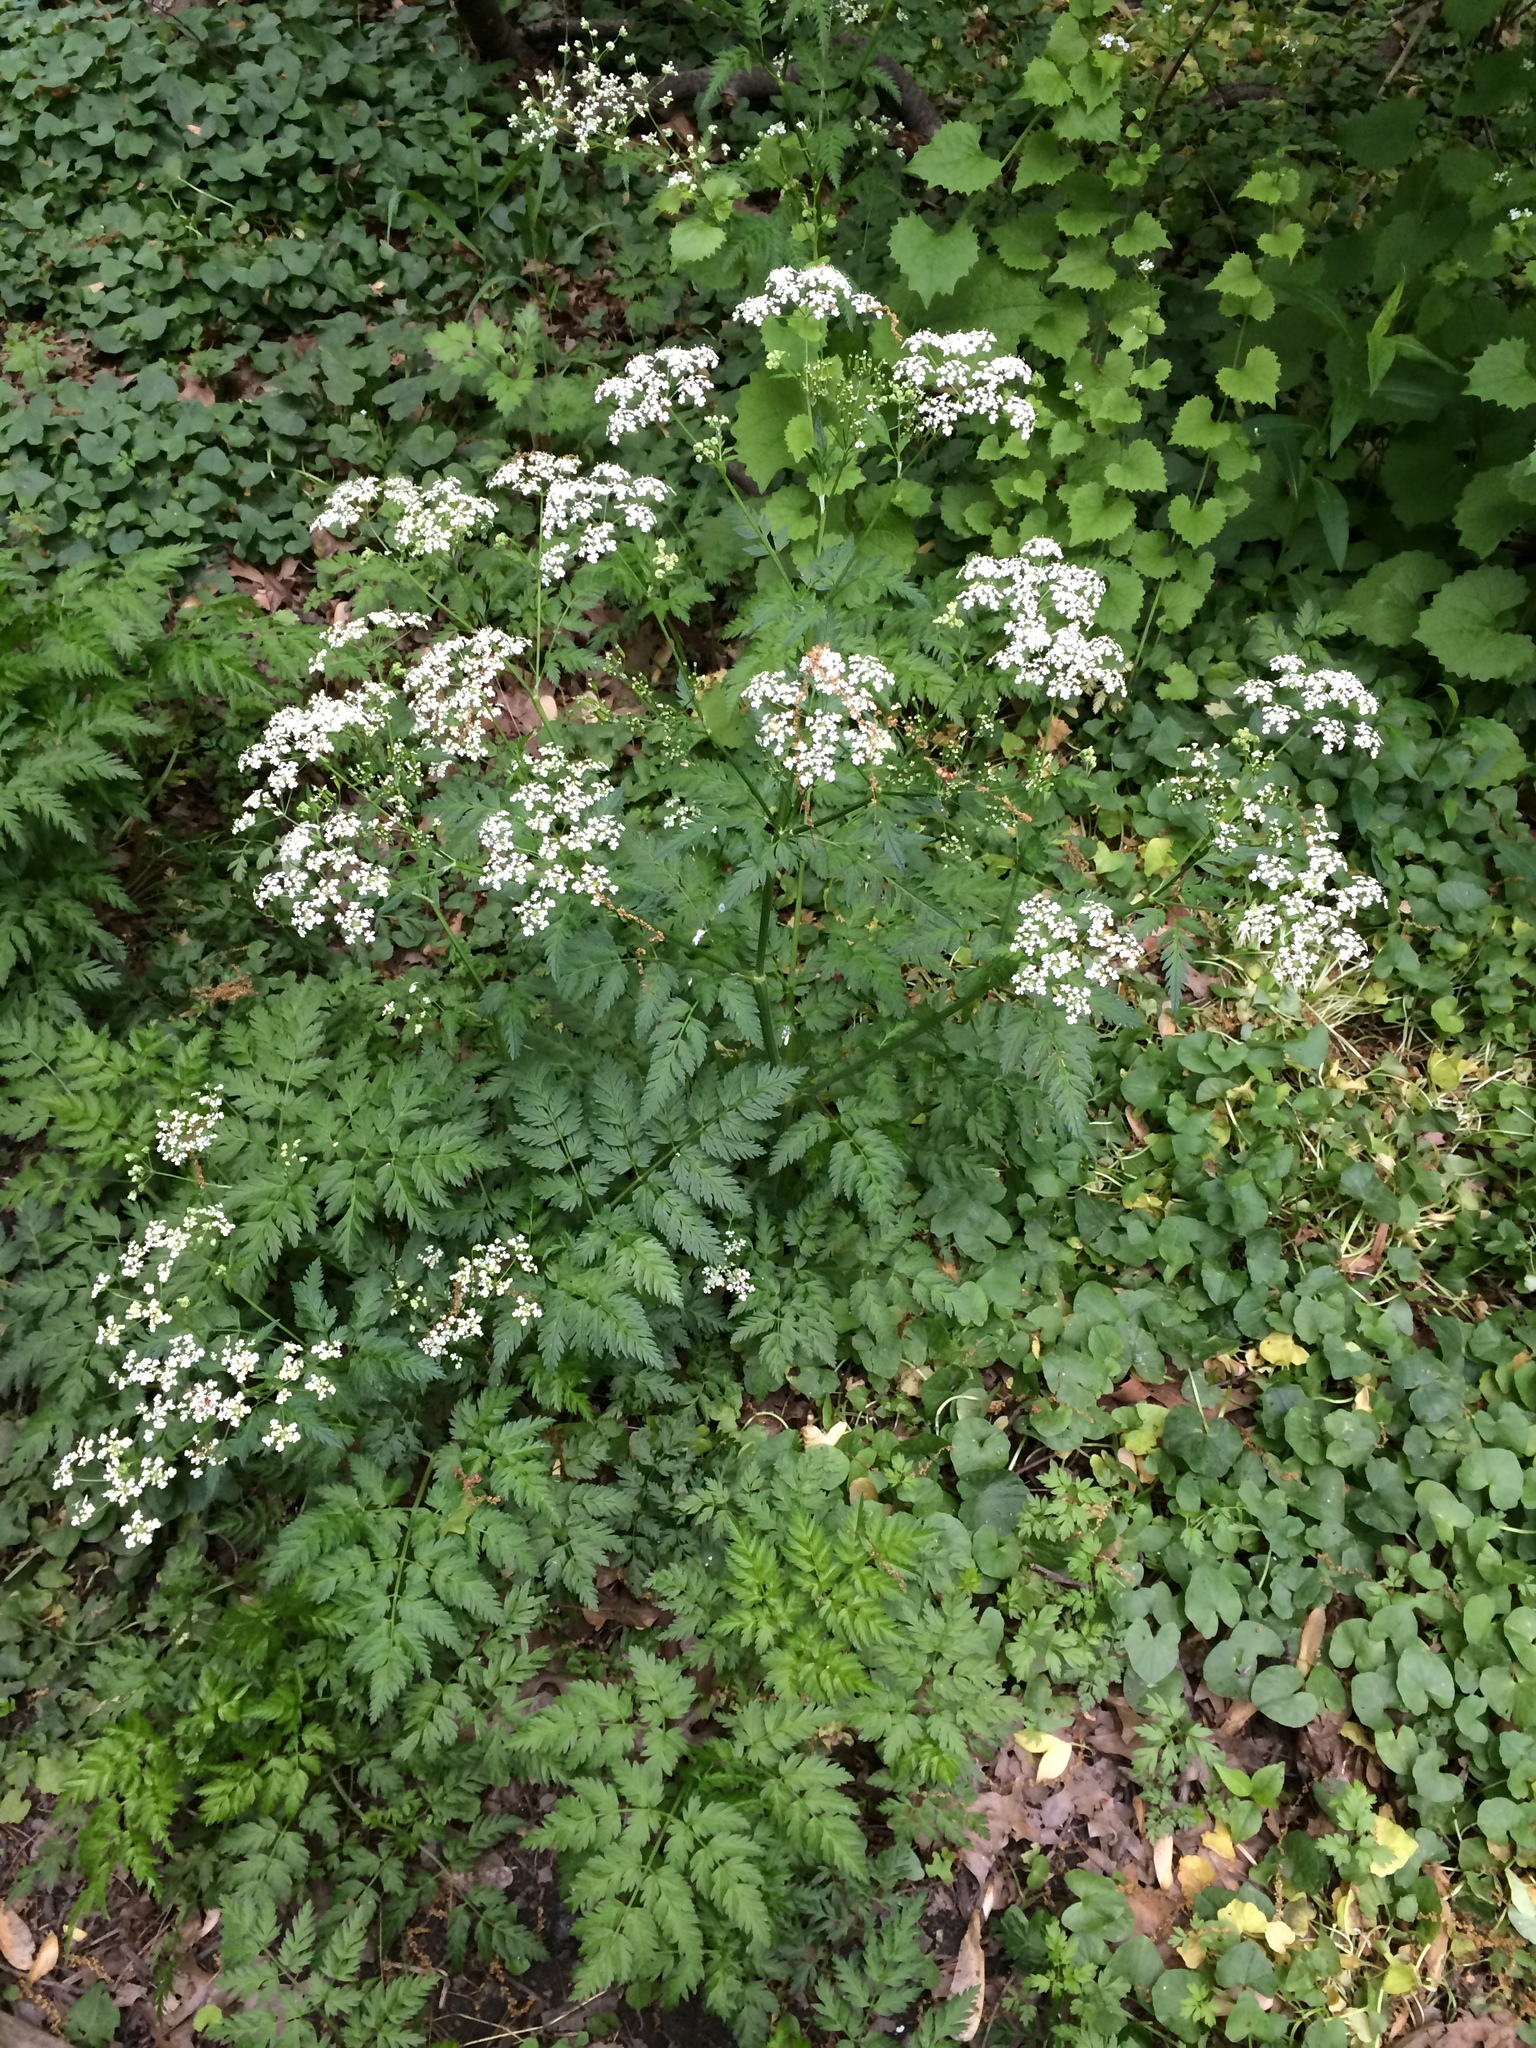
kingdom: Plantae
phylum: Tracheophyta
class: Magnoliopsida
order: Apiales
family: Apiaceae
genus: Anthriscus
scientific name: Anthriscus sylvestris
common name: Cow parsley
